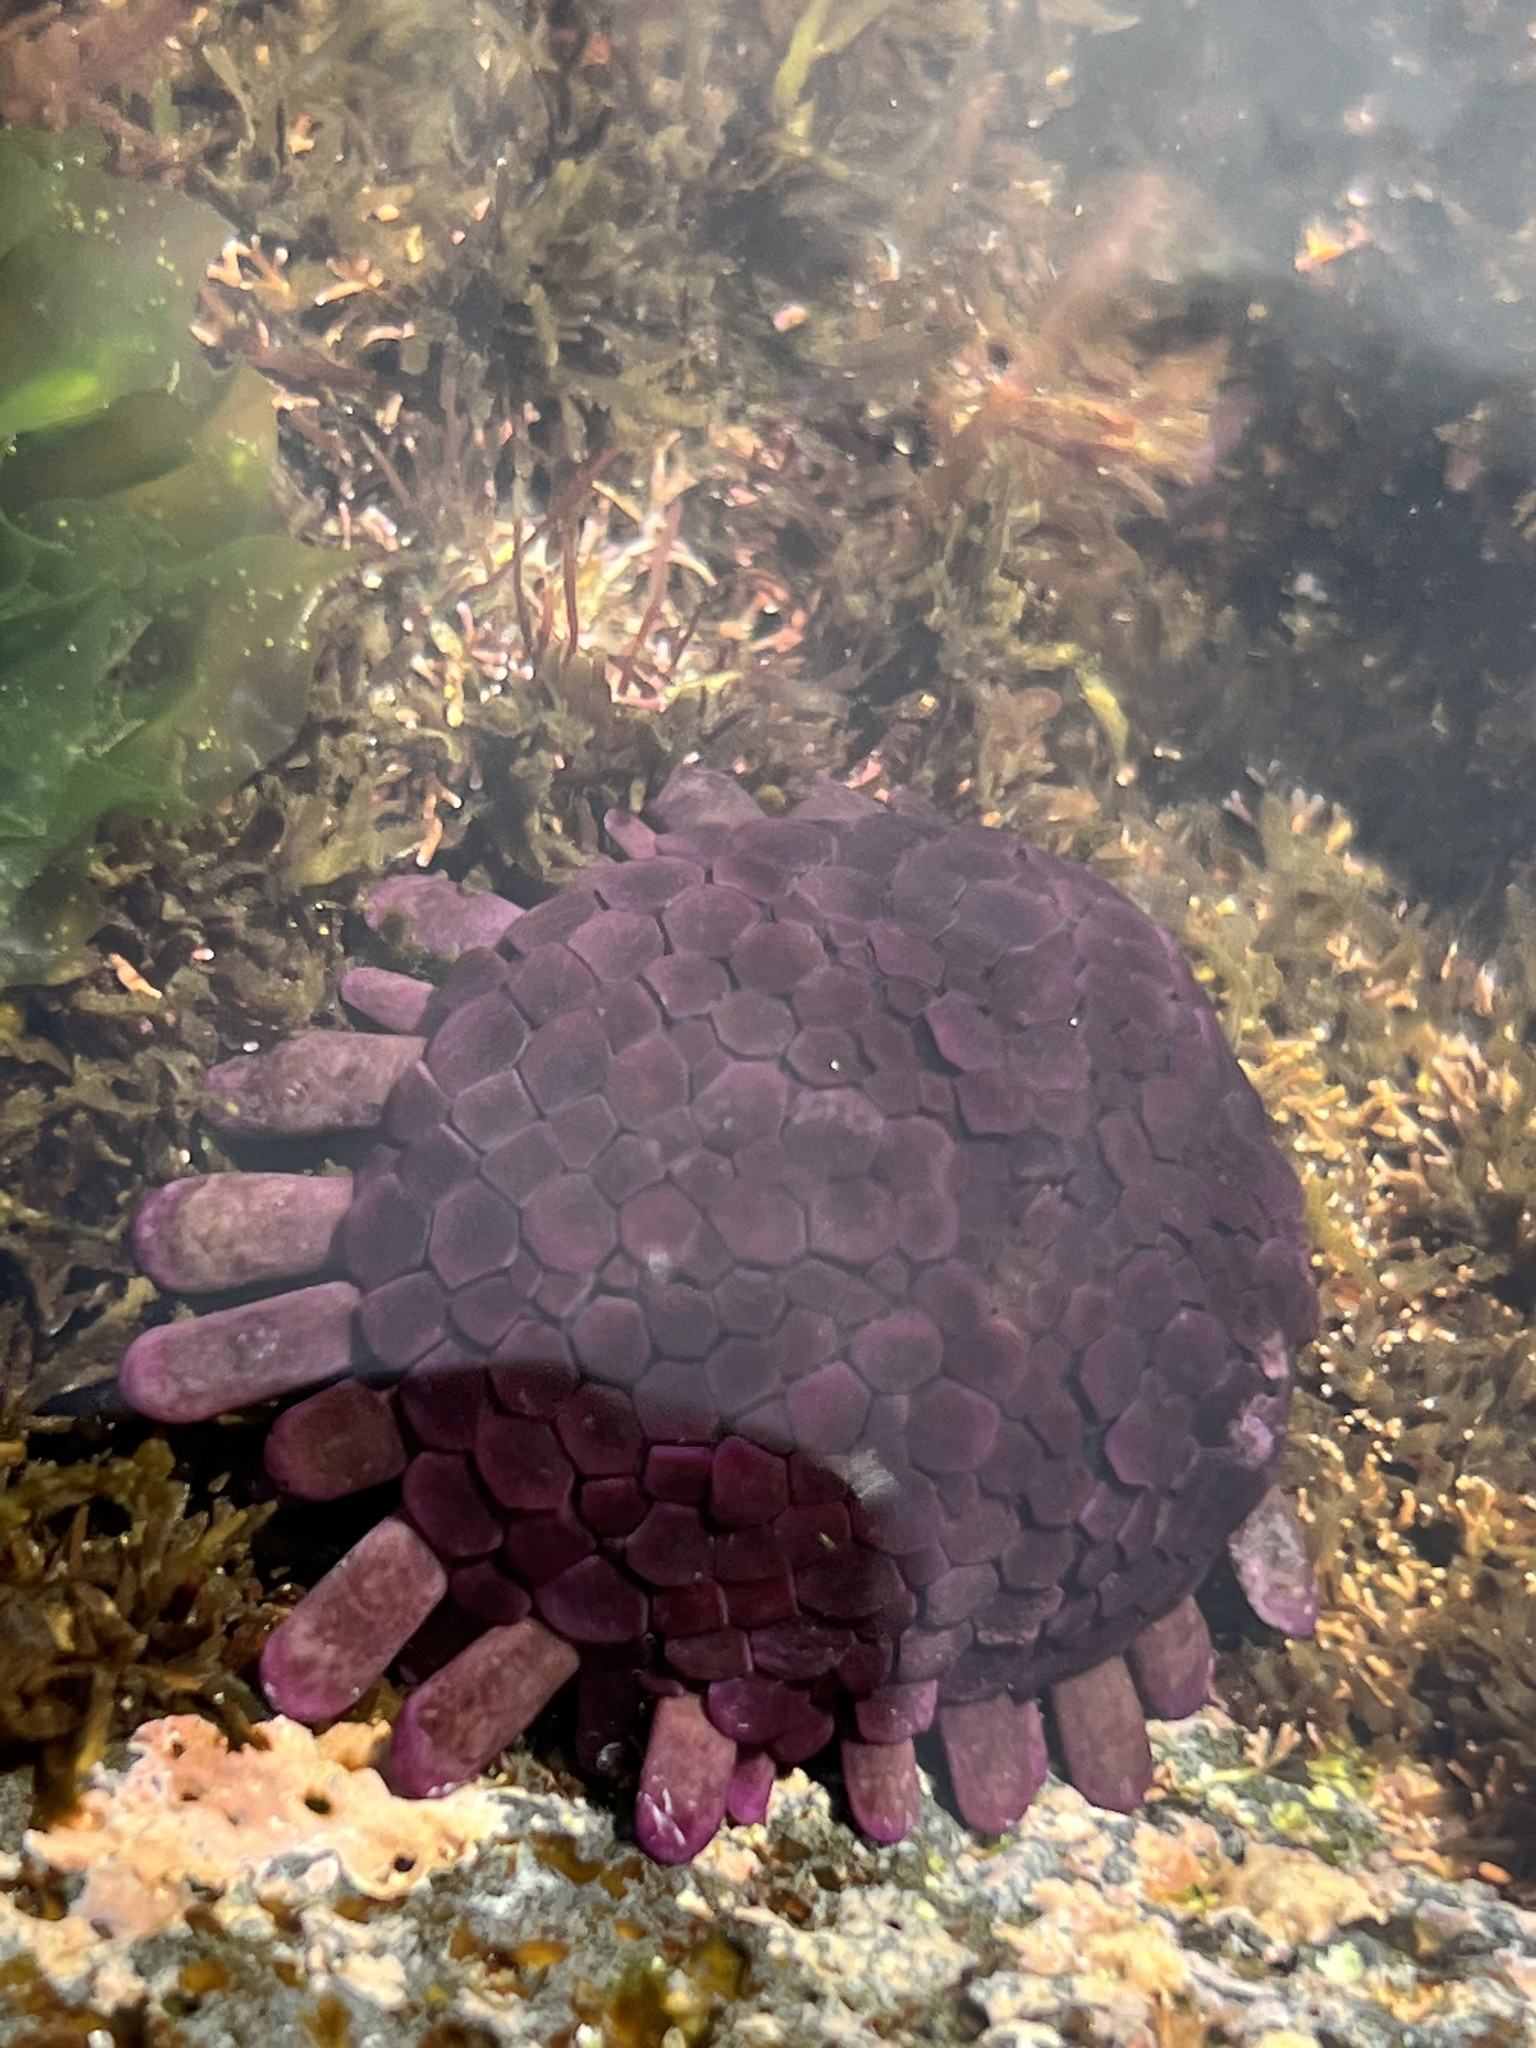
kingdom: Animalia
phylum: Echinodermata
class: Echinoidea
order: Camarodonta
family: Echinometridae
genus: Colobocentrotus
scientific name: Colobocentrotus atratus
